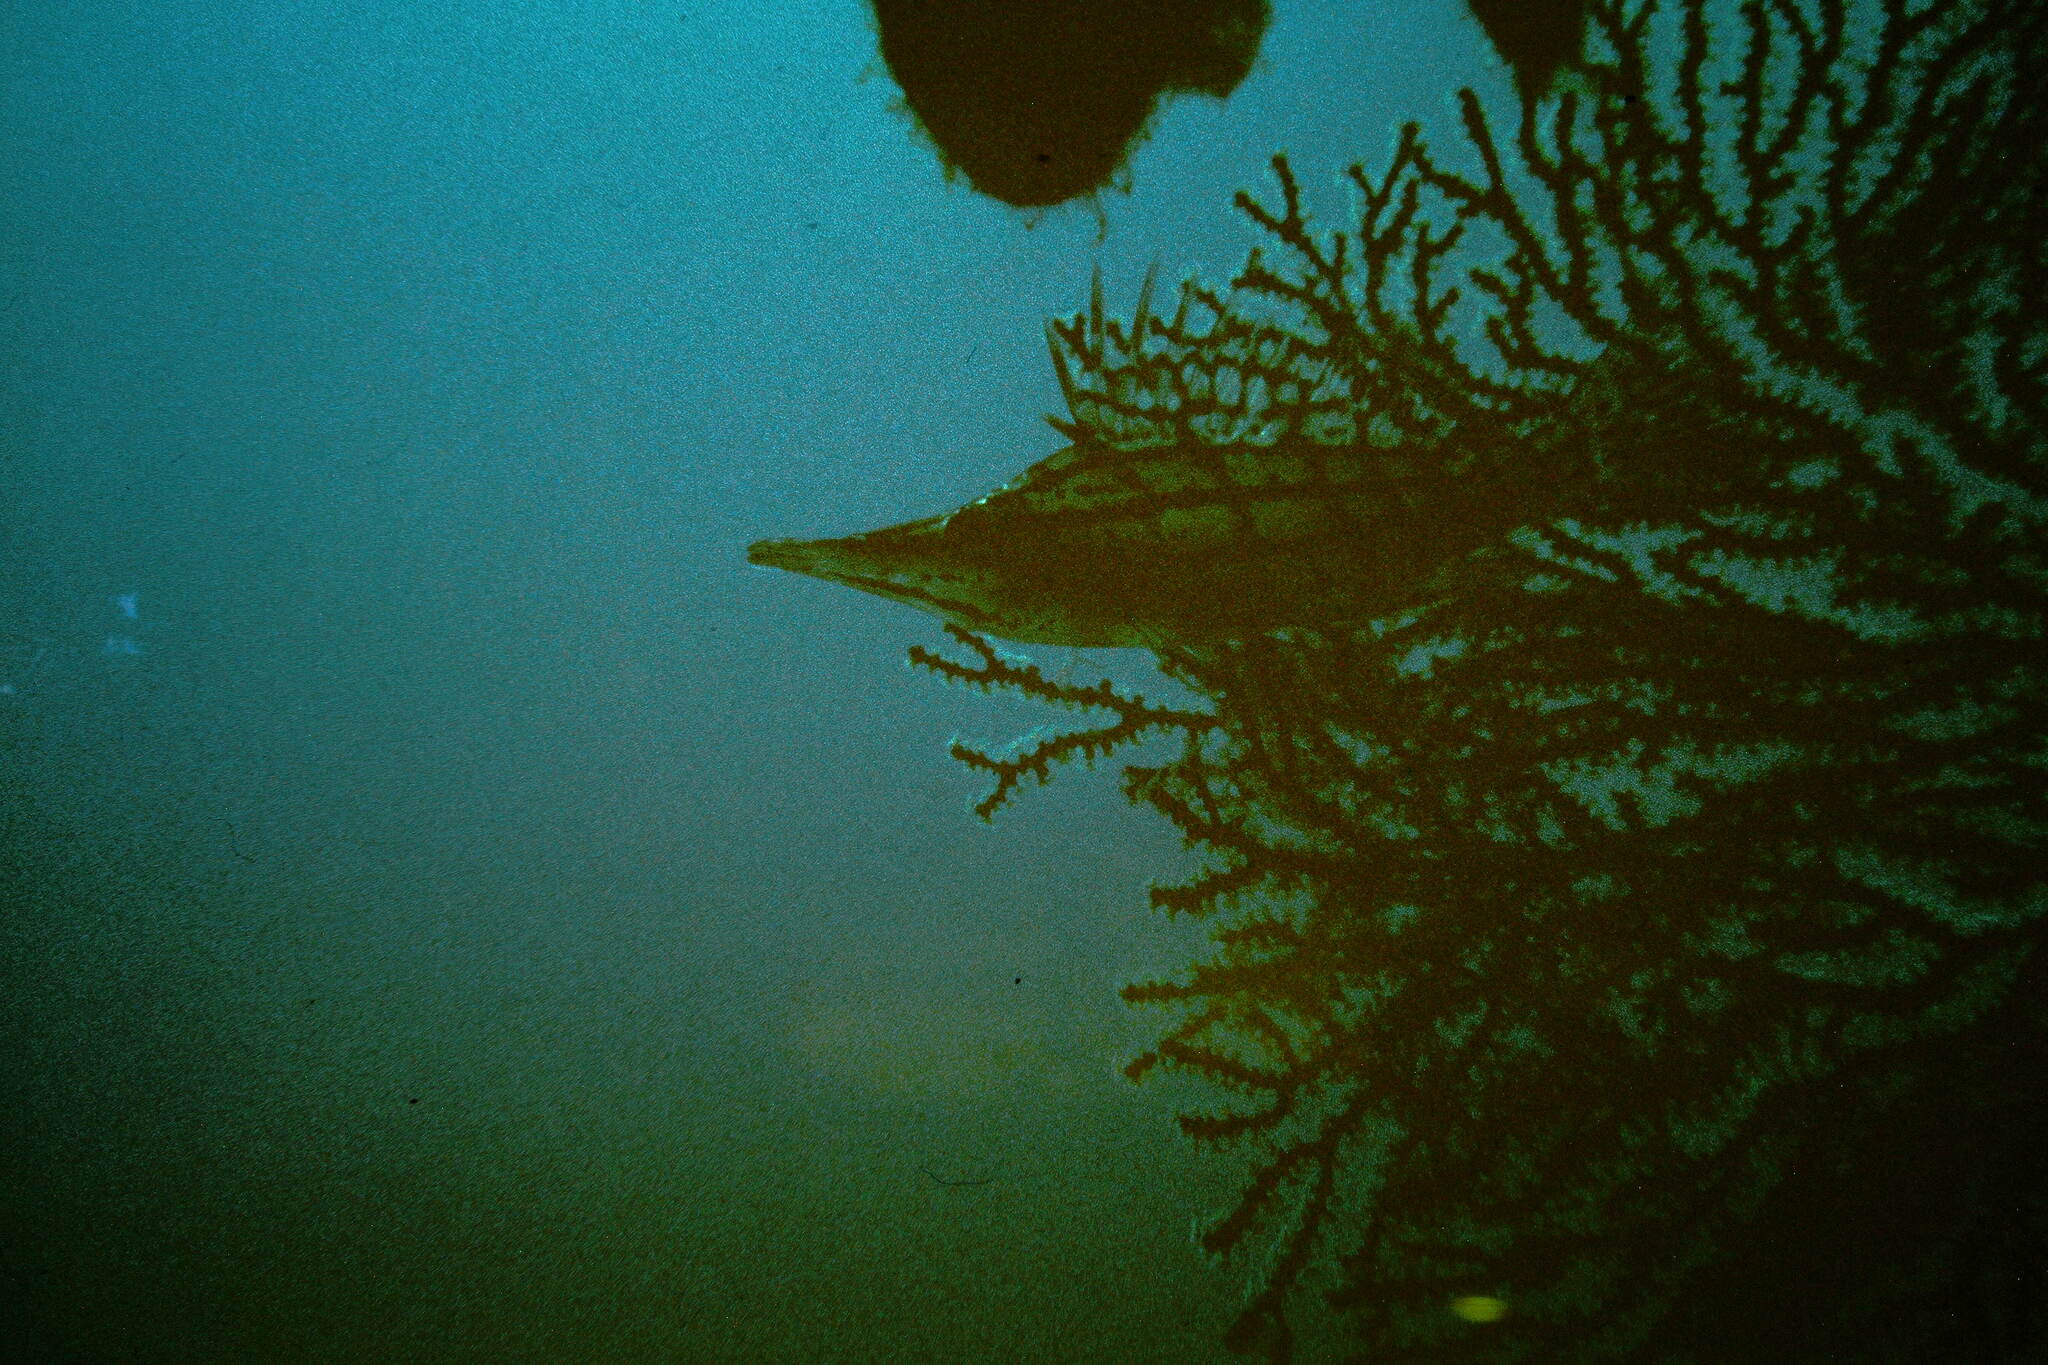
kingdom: Animalia
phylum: Chordata
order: Perciformes
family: Cirrhitidae
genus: Oxycirrhites
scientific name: Oxycirrhites typus
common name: Longnose hawkfish
